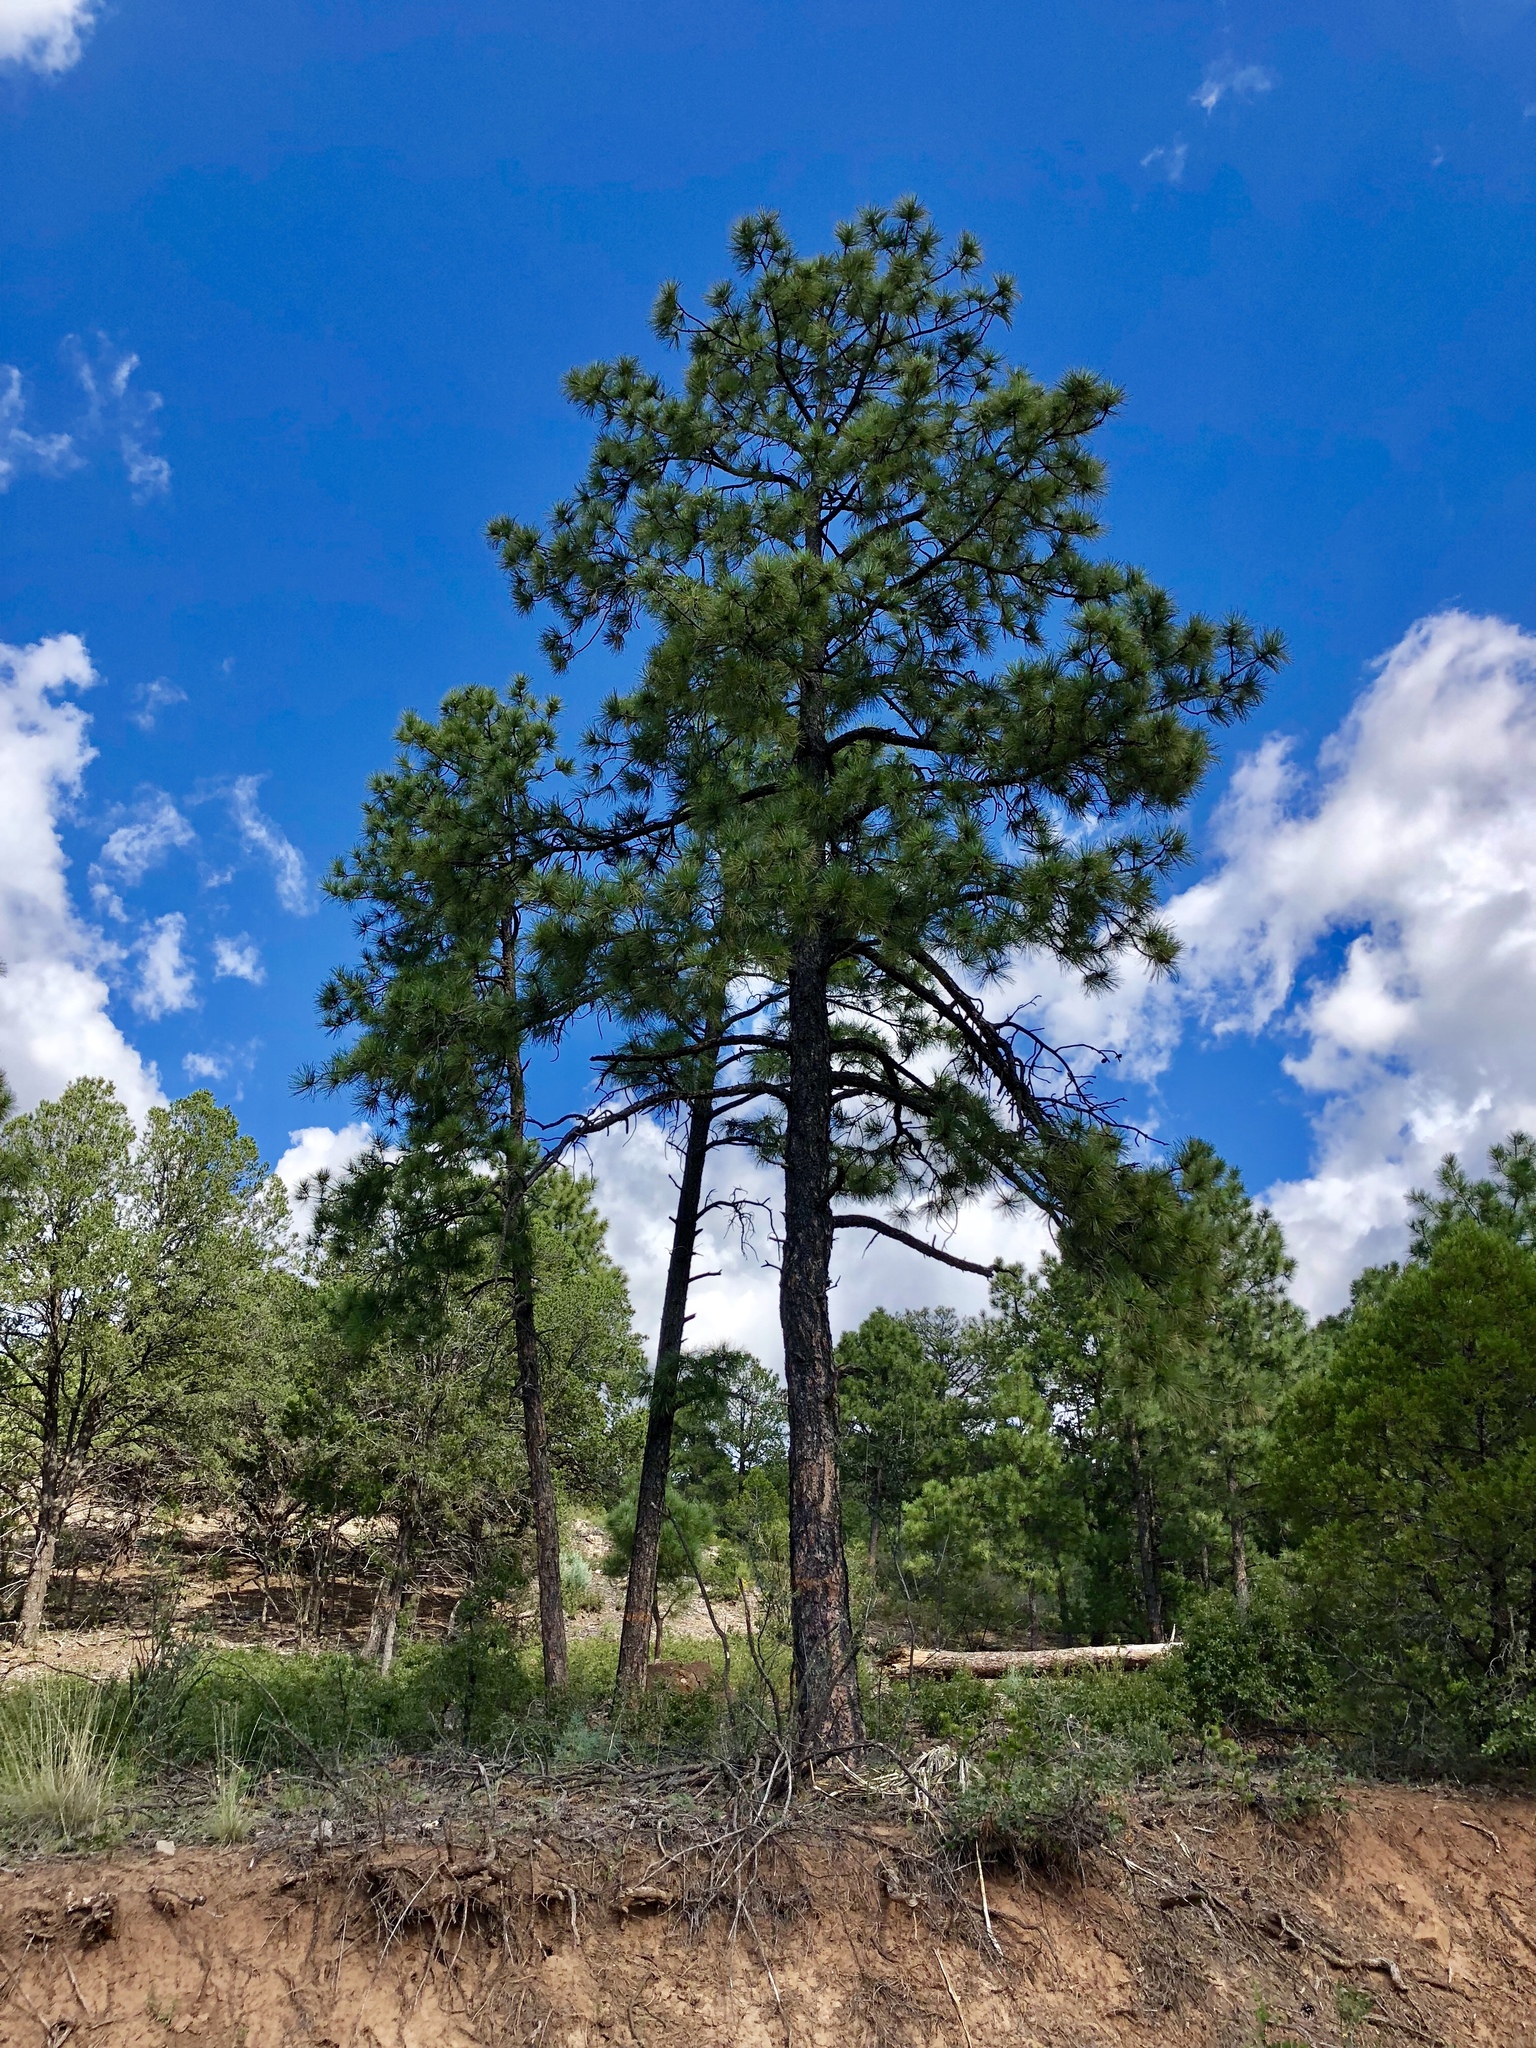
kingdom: Plantae
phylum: Tracheophyta
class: Pinopsida
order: Pinales
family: Pinaceae
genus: Pinus
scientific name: Pinus ponderosa
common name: Western yellow-pine
